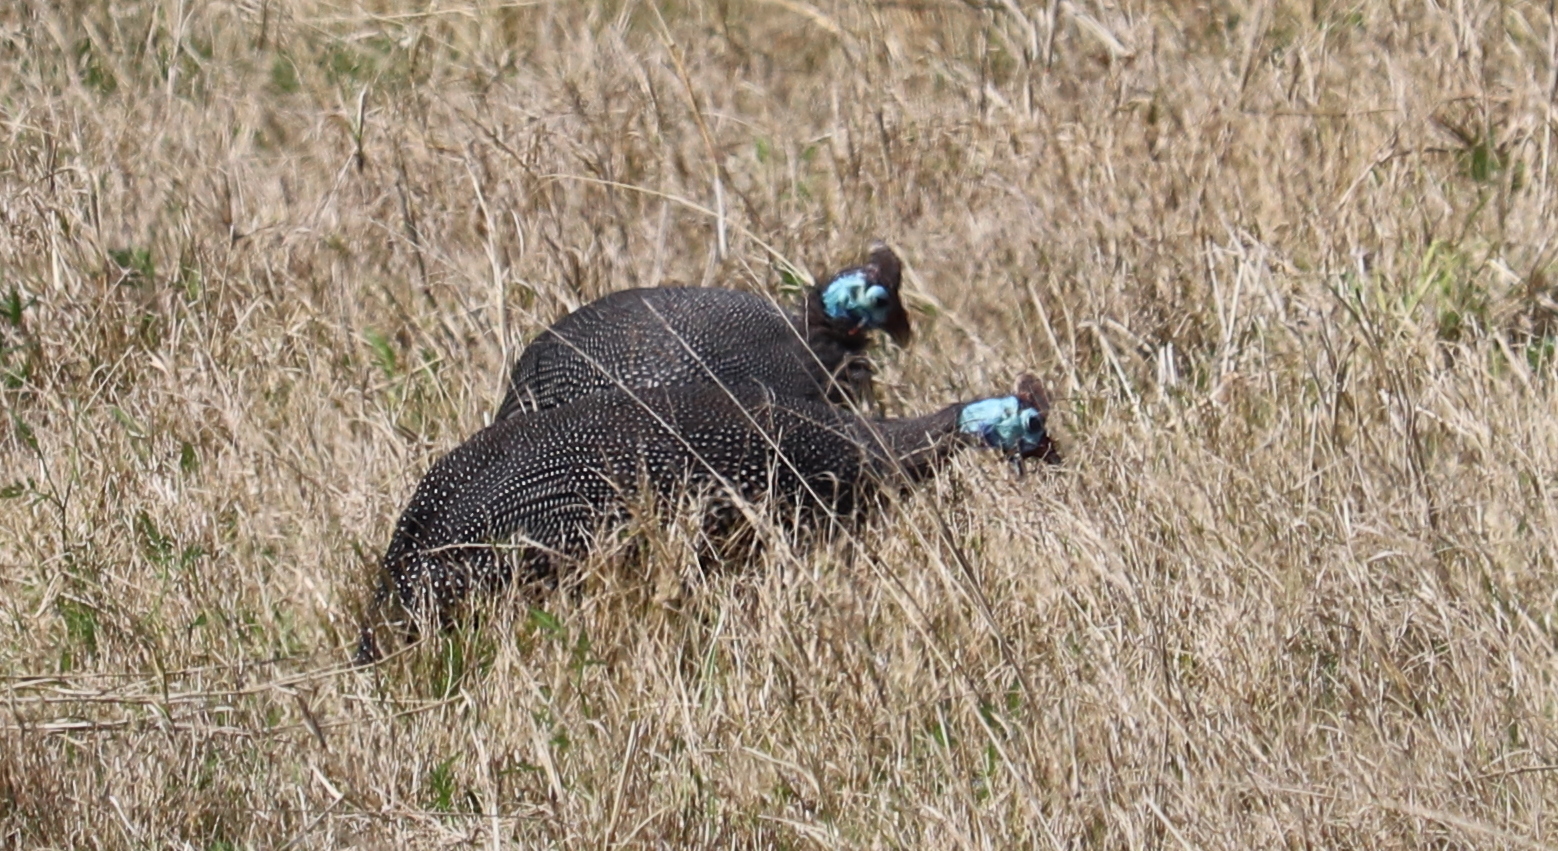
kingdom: Animalia
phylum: Chordata
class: Aves
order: Galliformes
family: Numididae
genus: Numida
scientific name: Numida meleagris
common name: Helmeted guineafowl
